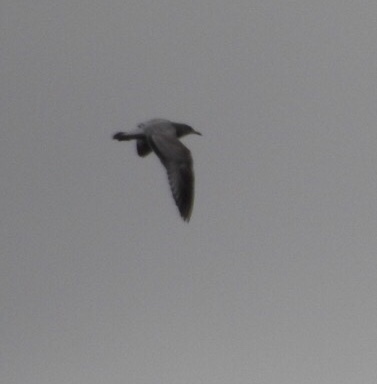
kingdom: Animalia
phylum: Chordata
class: Aves
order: Charadriiformes
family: Laridae
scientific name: Laridae
